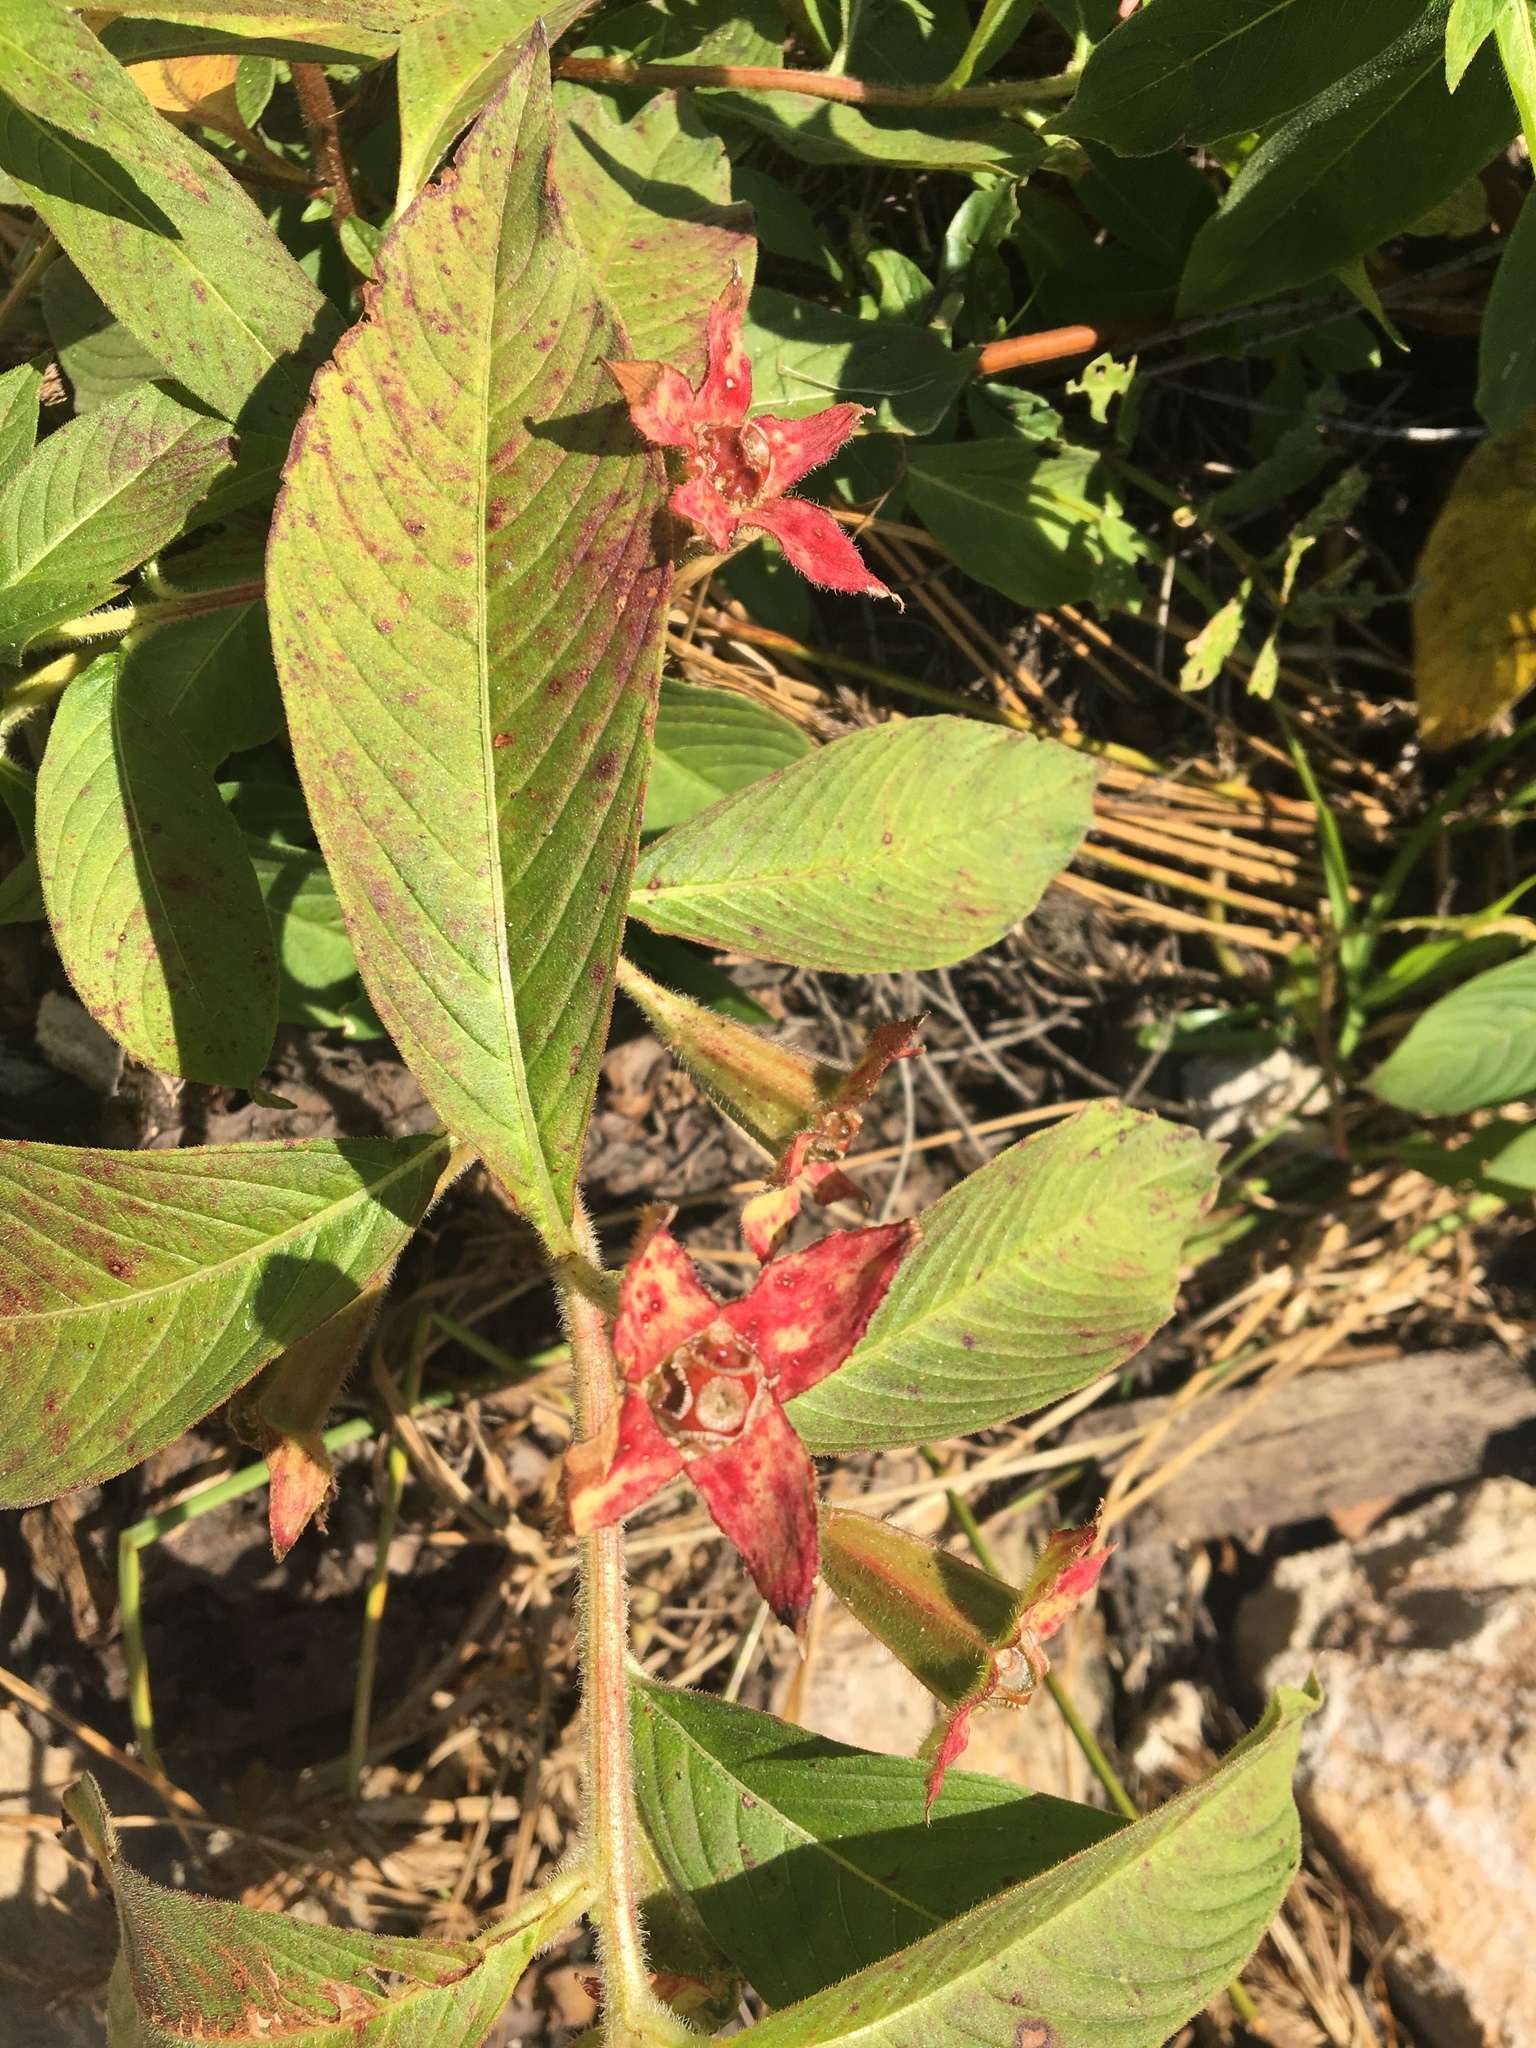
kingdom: Plantae
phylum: Tracheophyta
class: Magnoliopsida
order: Myrtales
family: Onagraceae
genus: Ludwigia
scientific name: Ludwigia peruviana
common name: Peruvian primrose-willow
